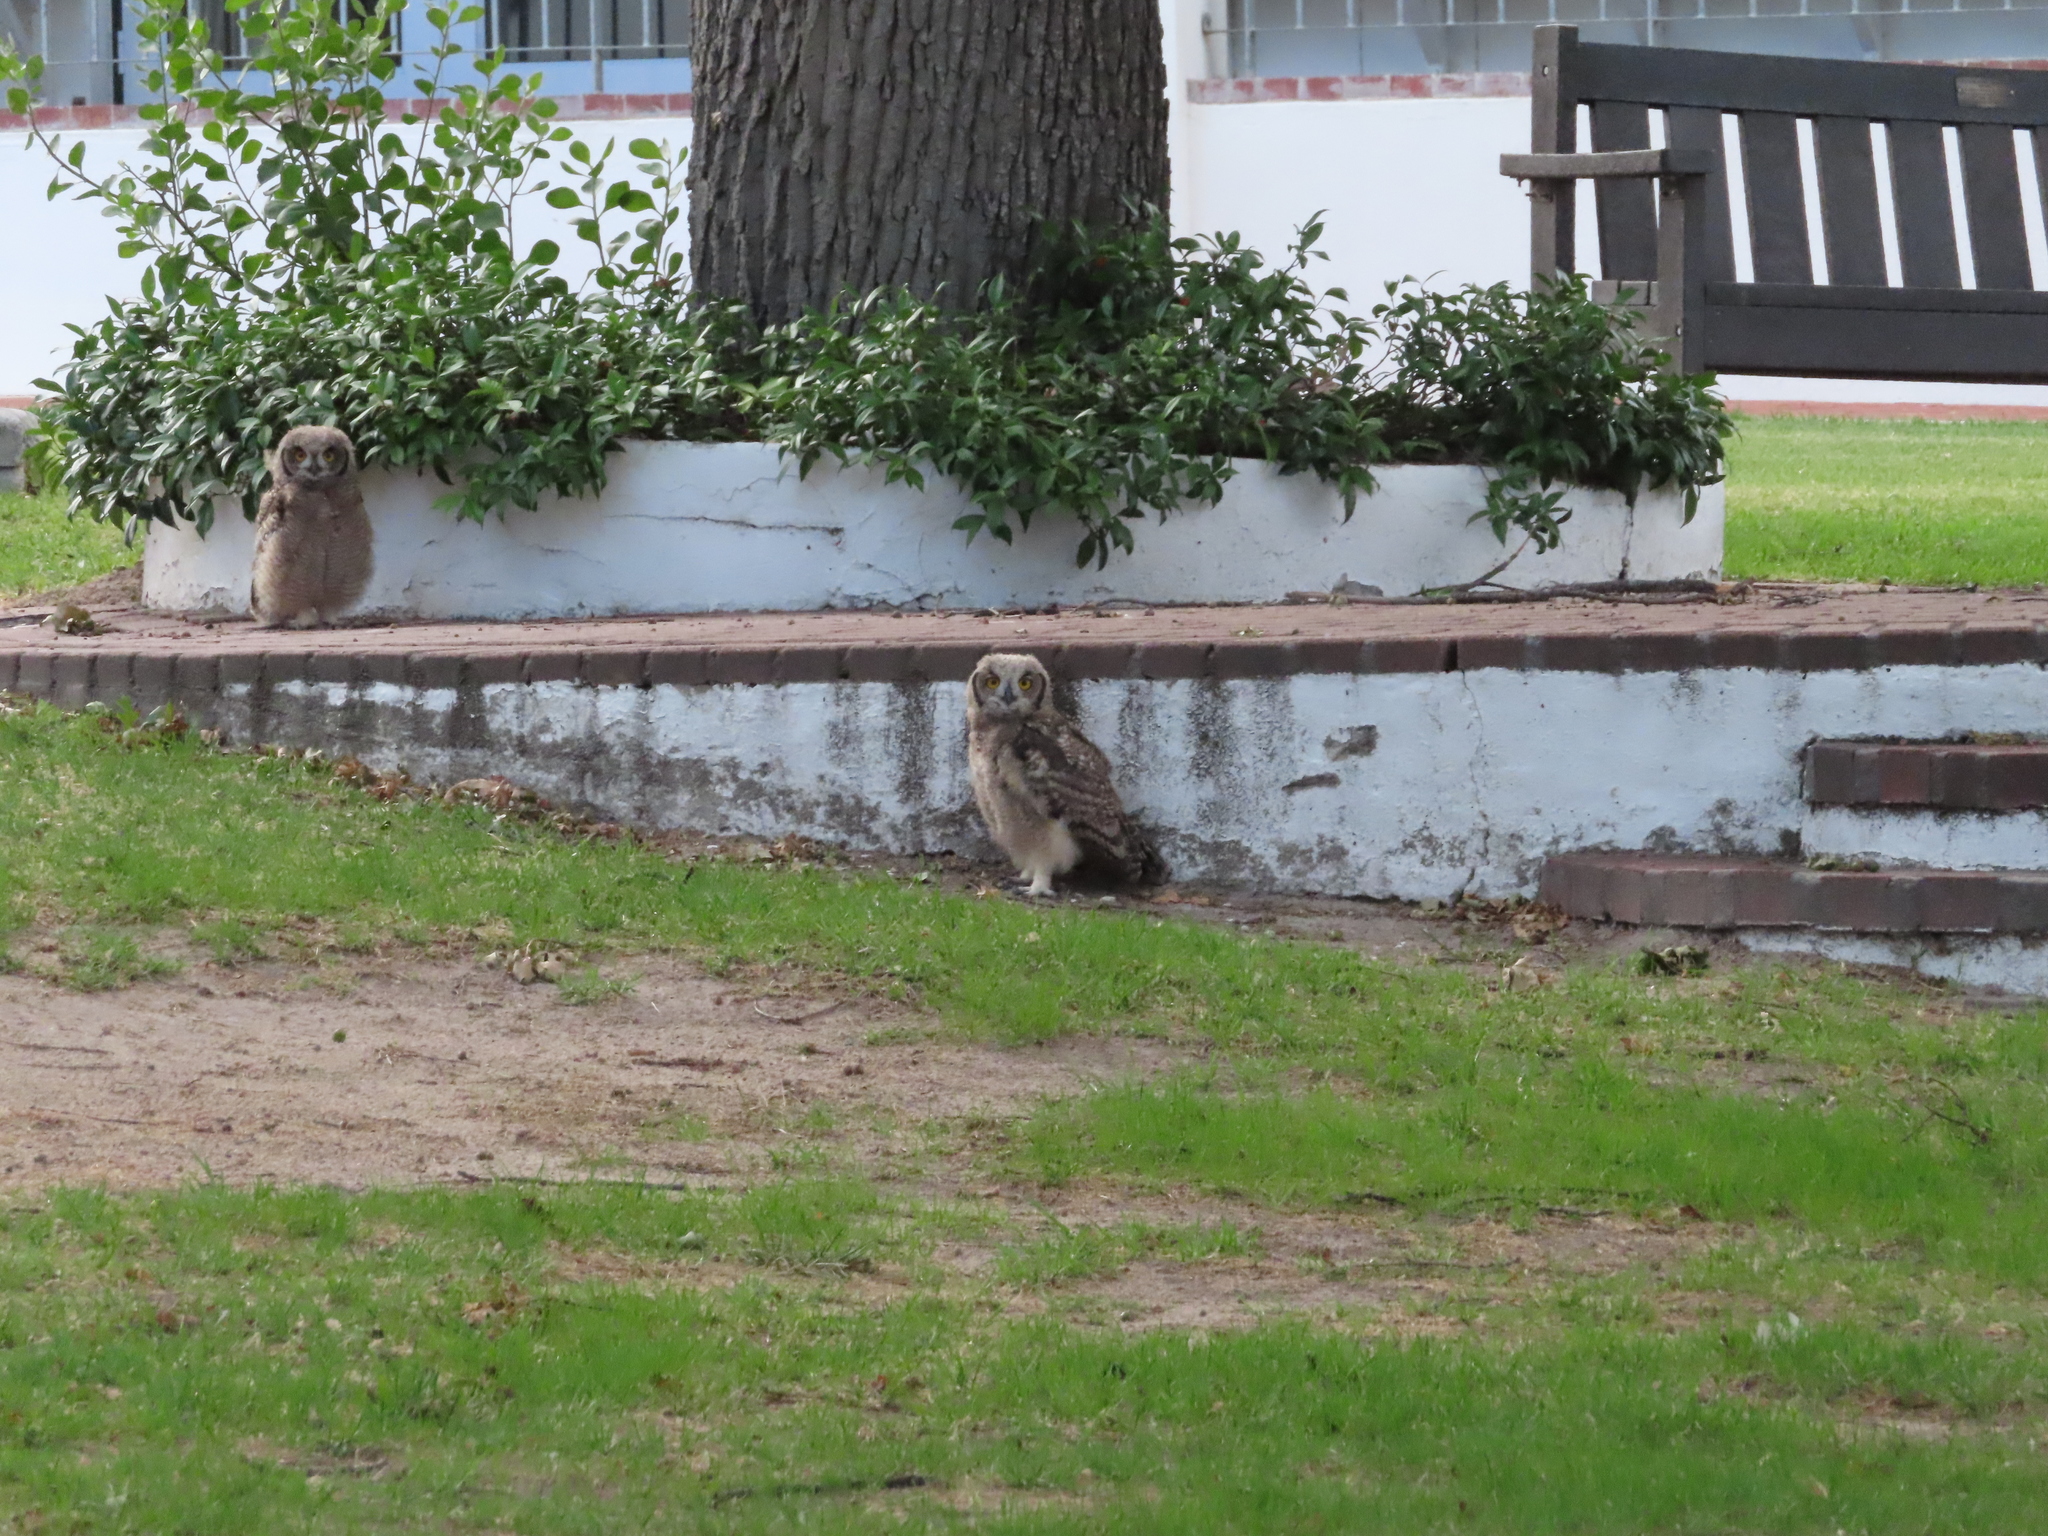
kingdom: Animalia
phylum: Chordata
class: Aves
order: Strigiformes
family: Strigidae
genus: Bubo
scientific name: Bubo africanus
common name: Spotted eagle-owl
